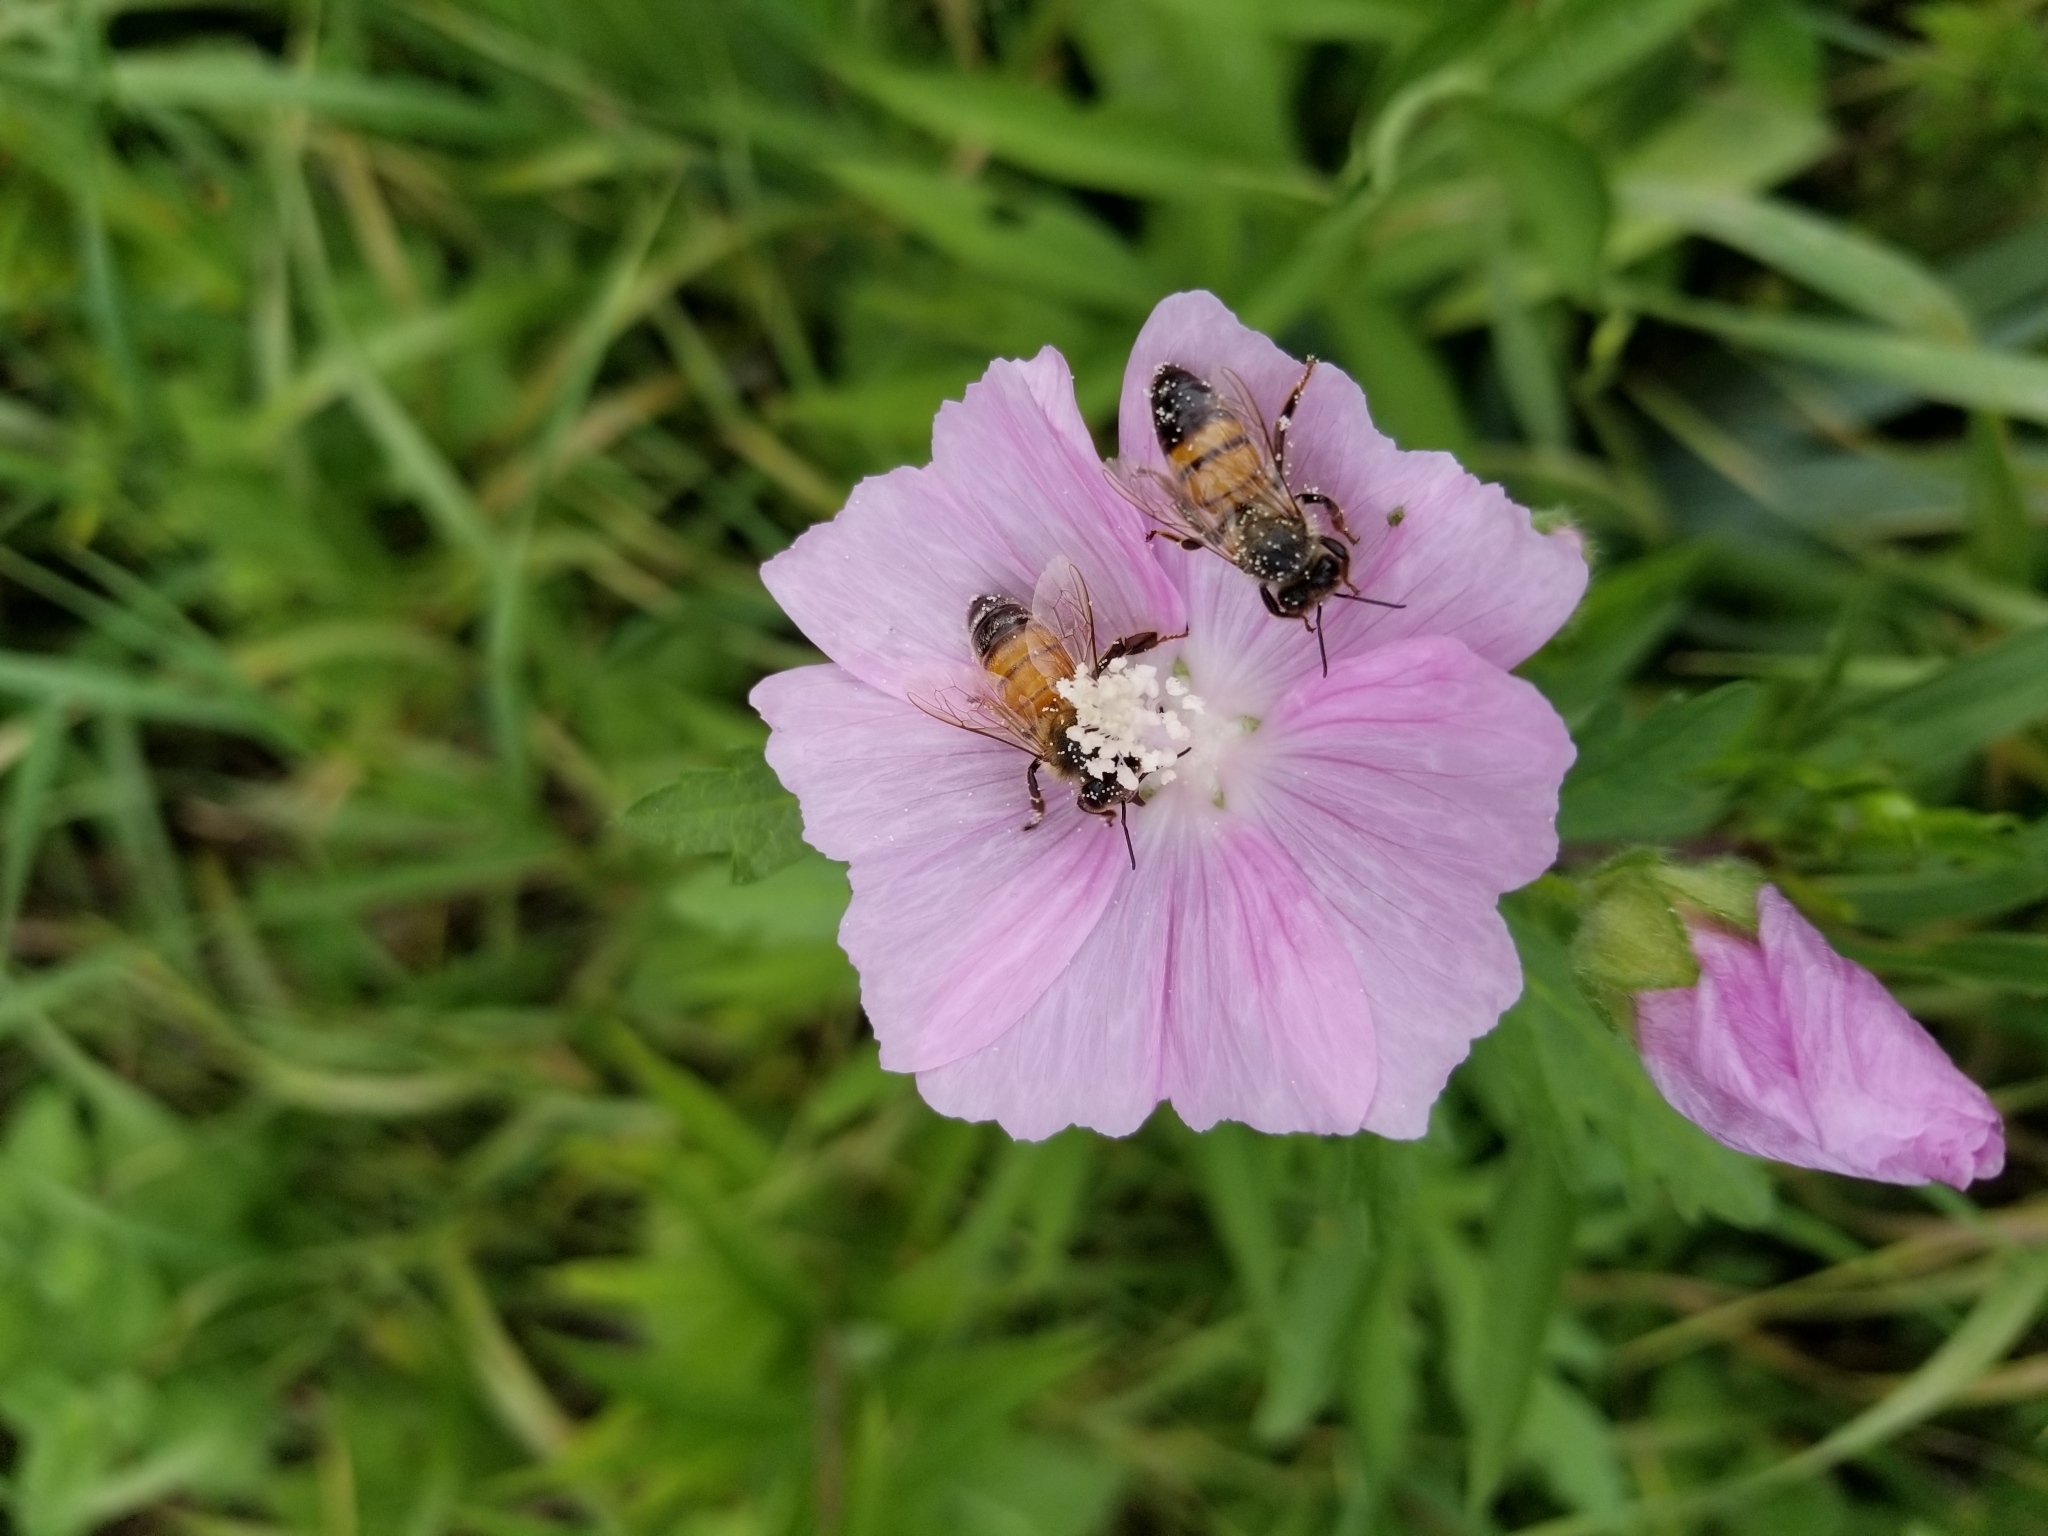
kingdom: Animalia
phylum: Arthropoda
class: Insecta
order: Hymenoptera
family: Apidae
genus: Apis
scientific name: Apis mellifera
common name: Honey bee
